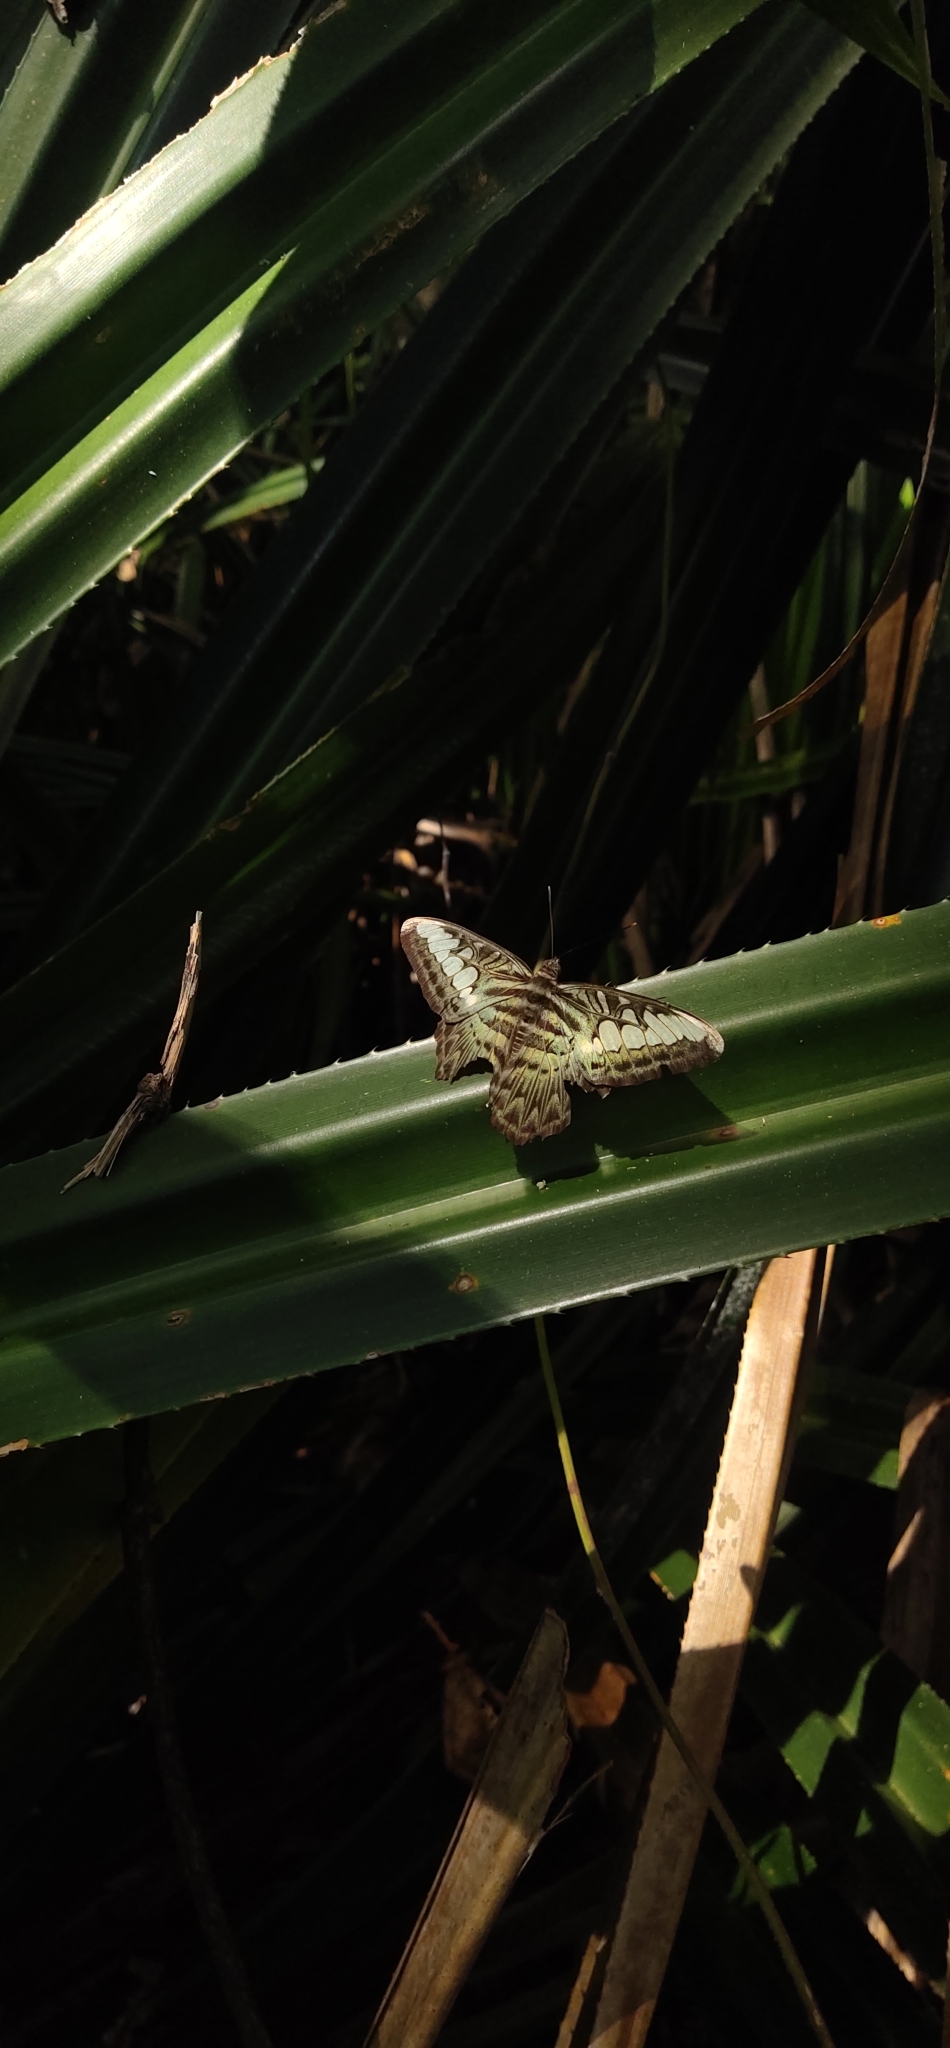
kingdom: Animalia
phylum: Arthropoda
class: Insecta
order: Lepidoptera
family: Nymphalidae
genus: Kallima
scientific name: Kallima sylvia
